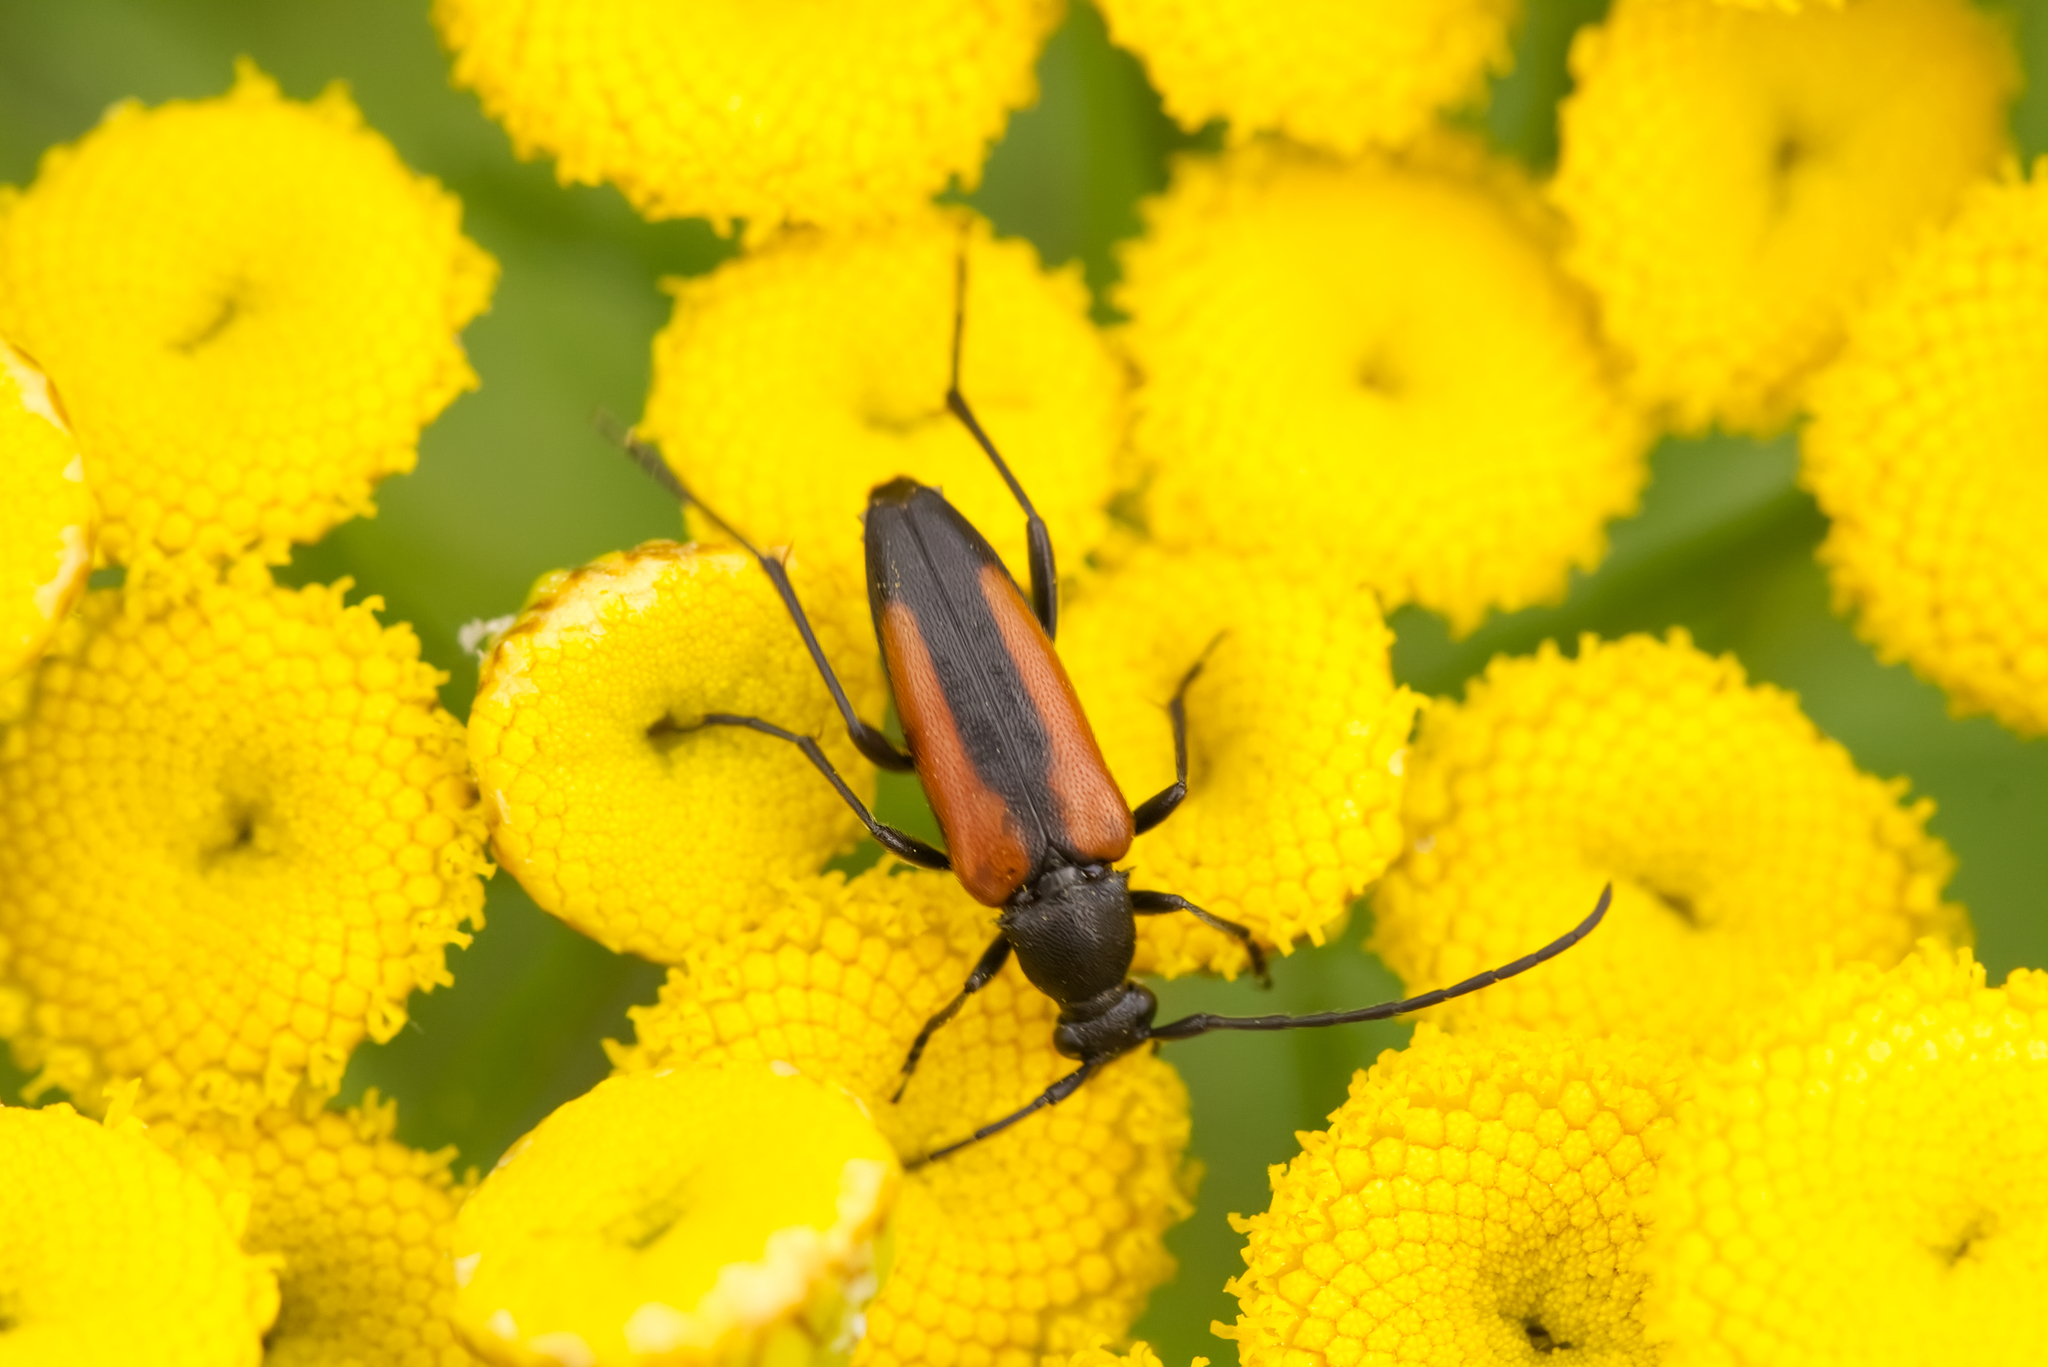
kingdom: Animalia
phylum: Arthropoda
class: Insecta
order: Coleoptera
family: Cerambycidae
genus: Stenurella
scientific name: Stenurella melanura
